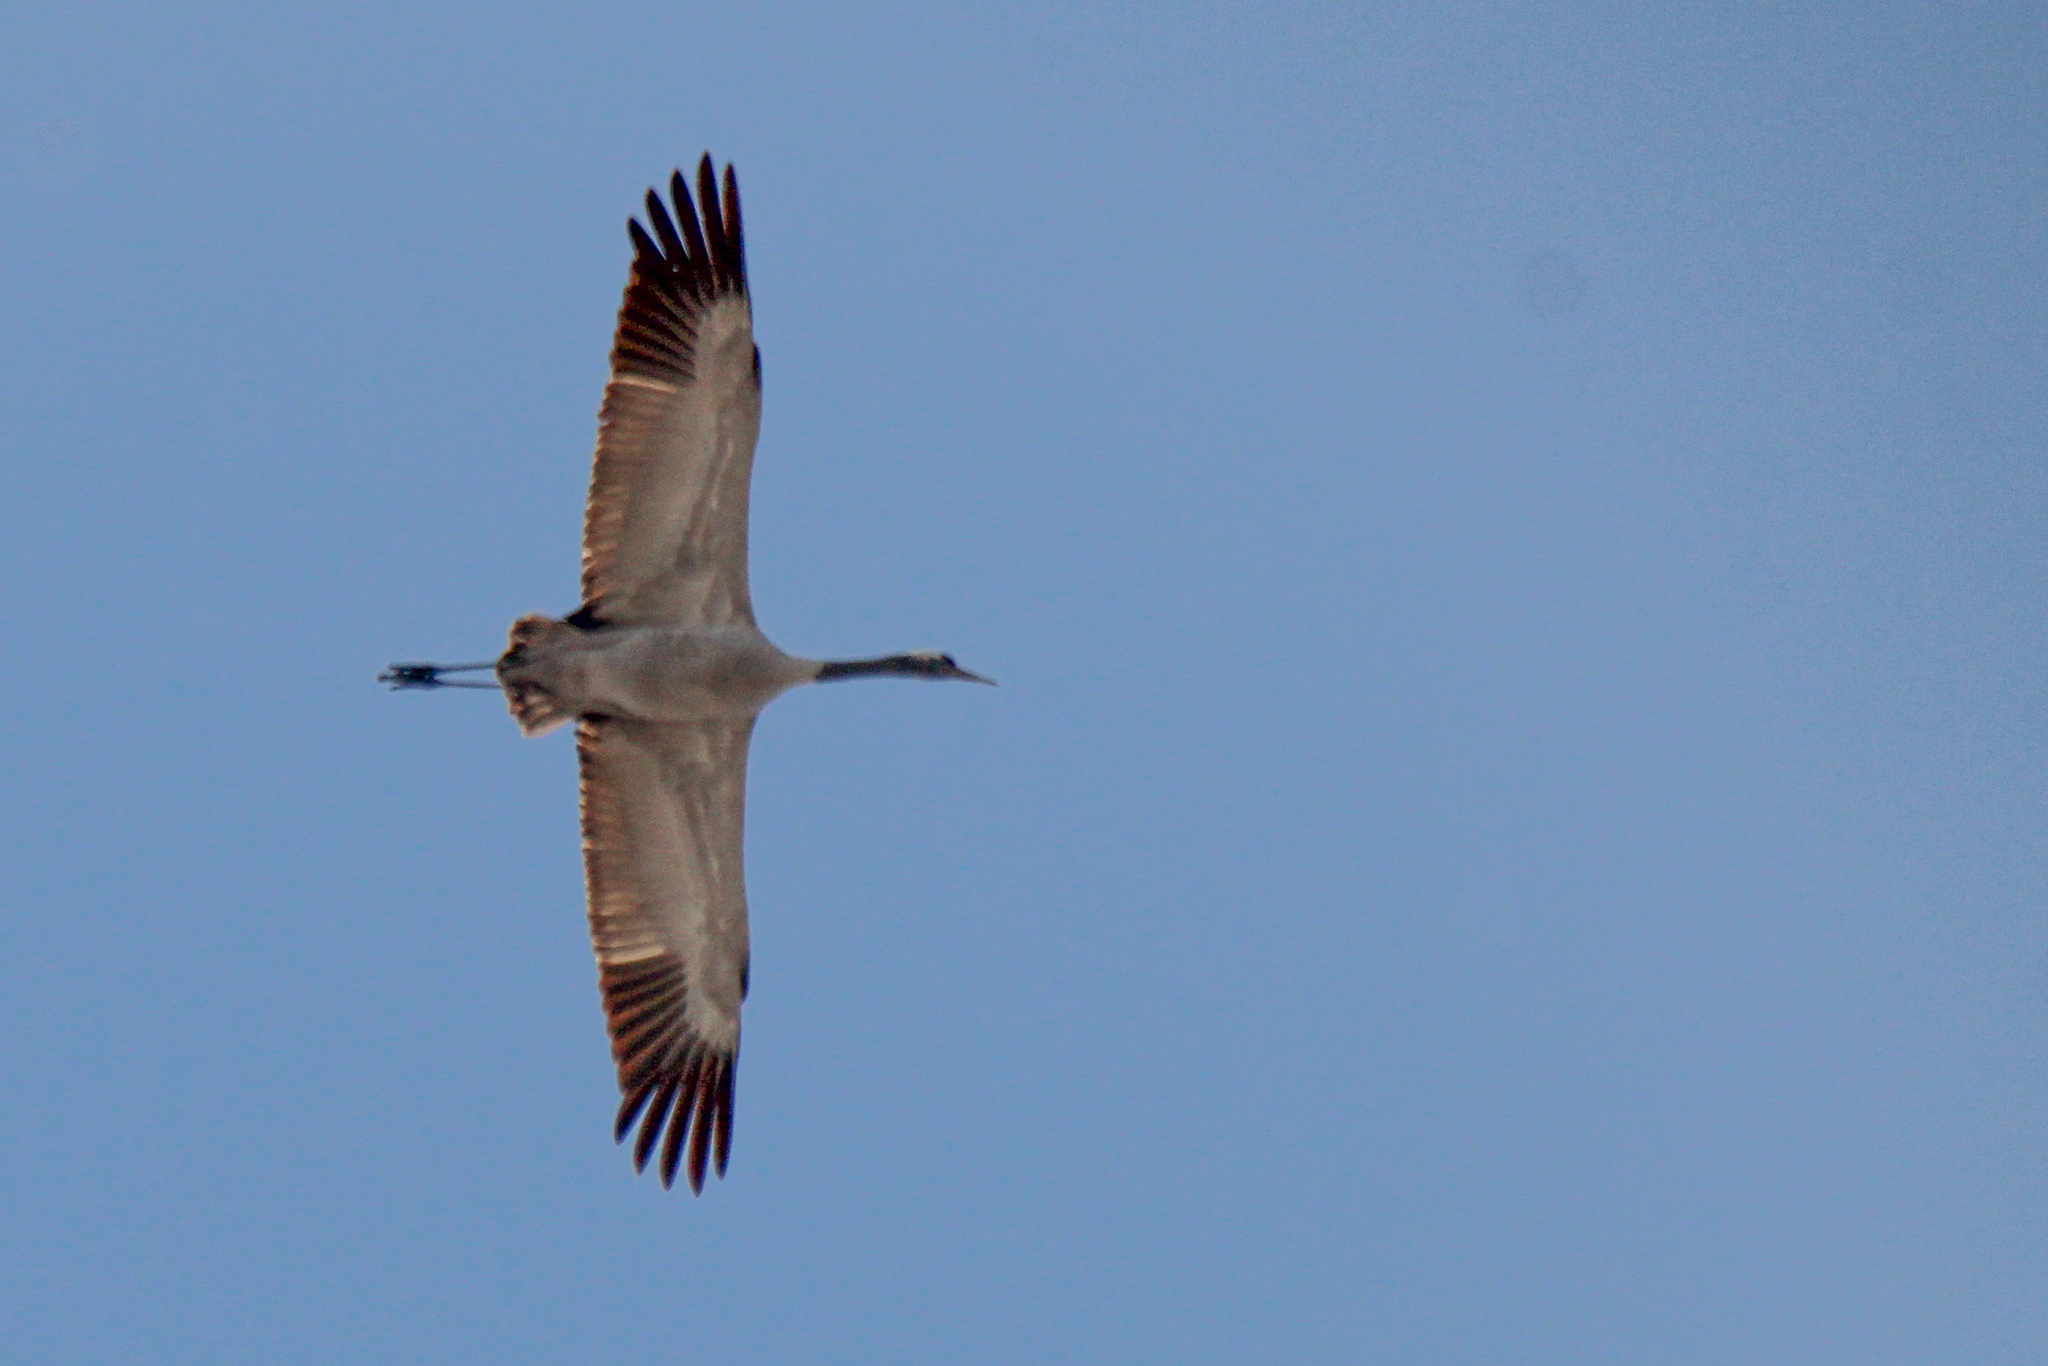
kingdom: Animalia
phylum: Chordata
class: Aves
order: Gruiformes
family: Gruidae
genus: Grus
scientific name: Grus grus
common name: Common crane
